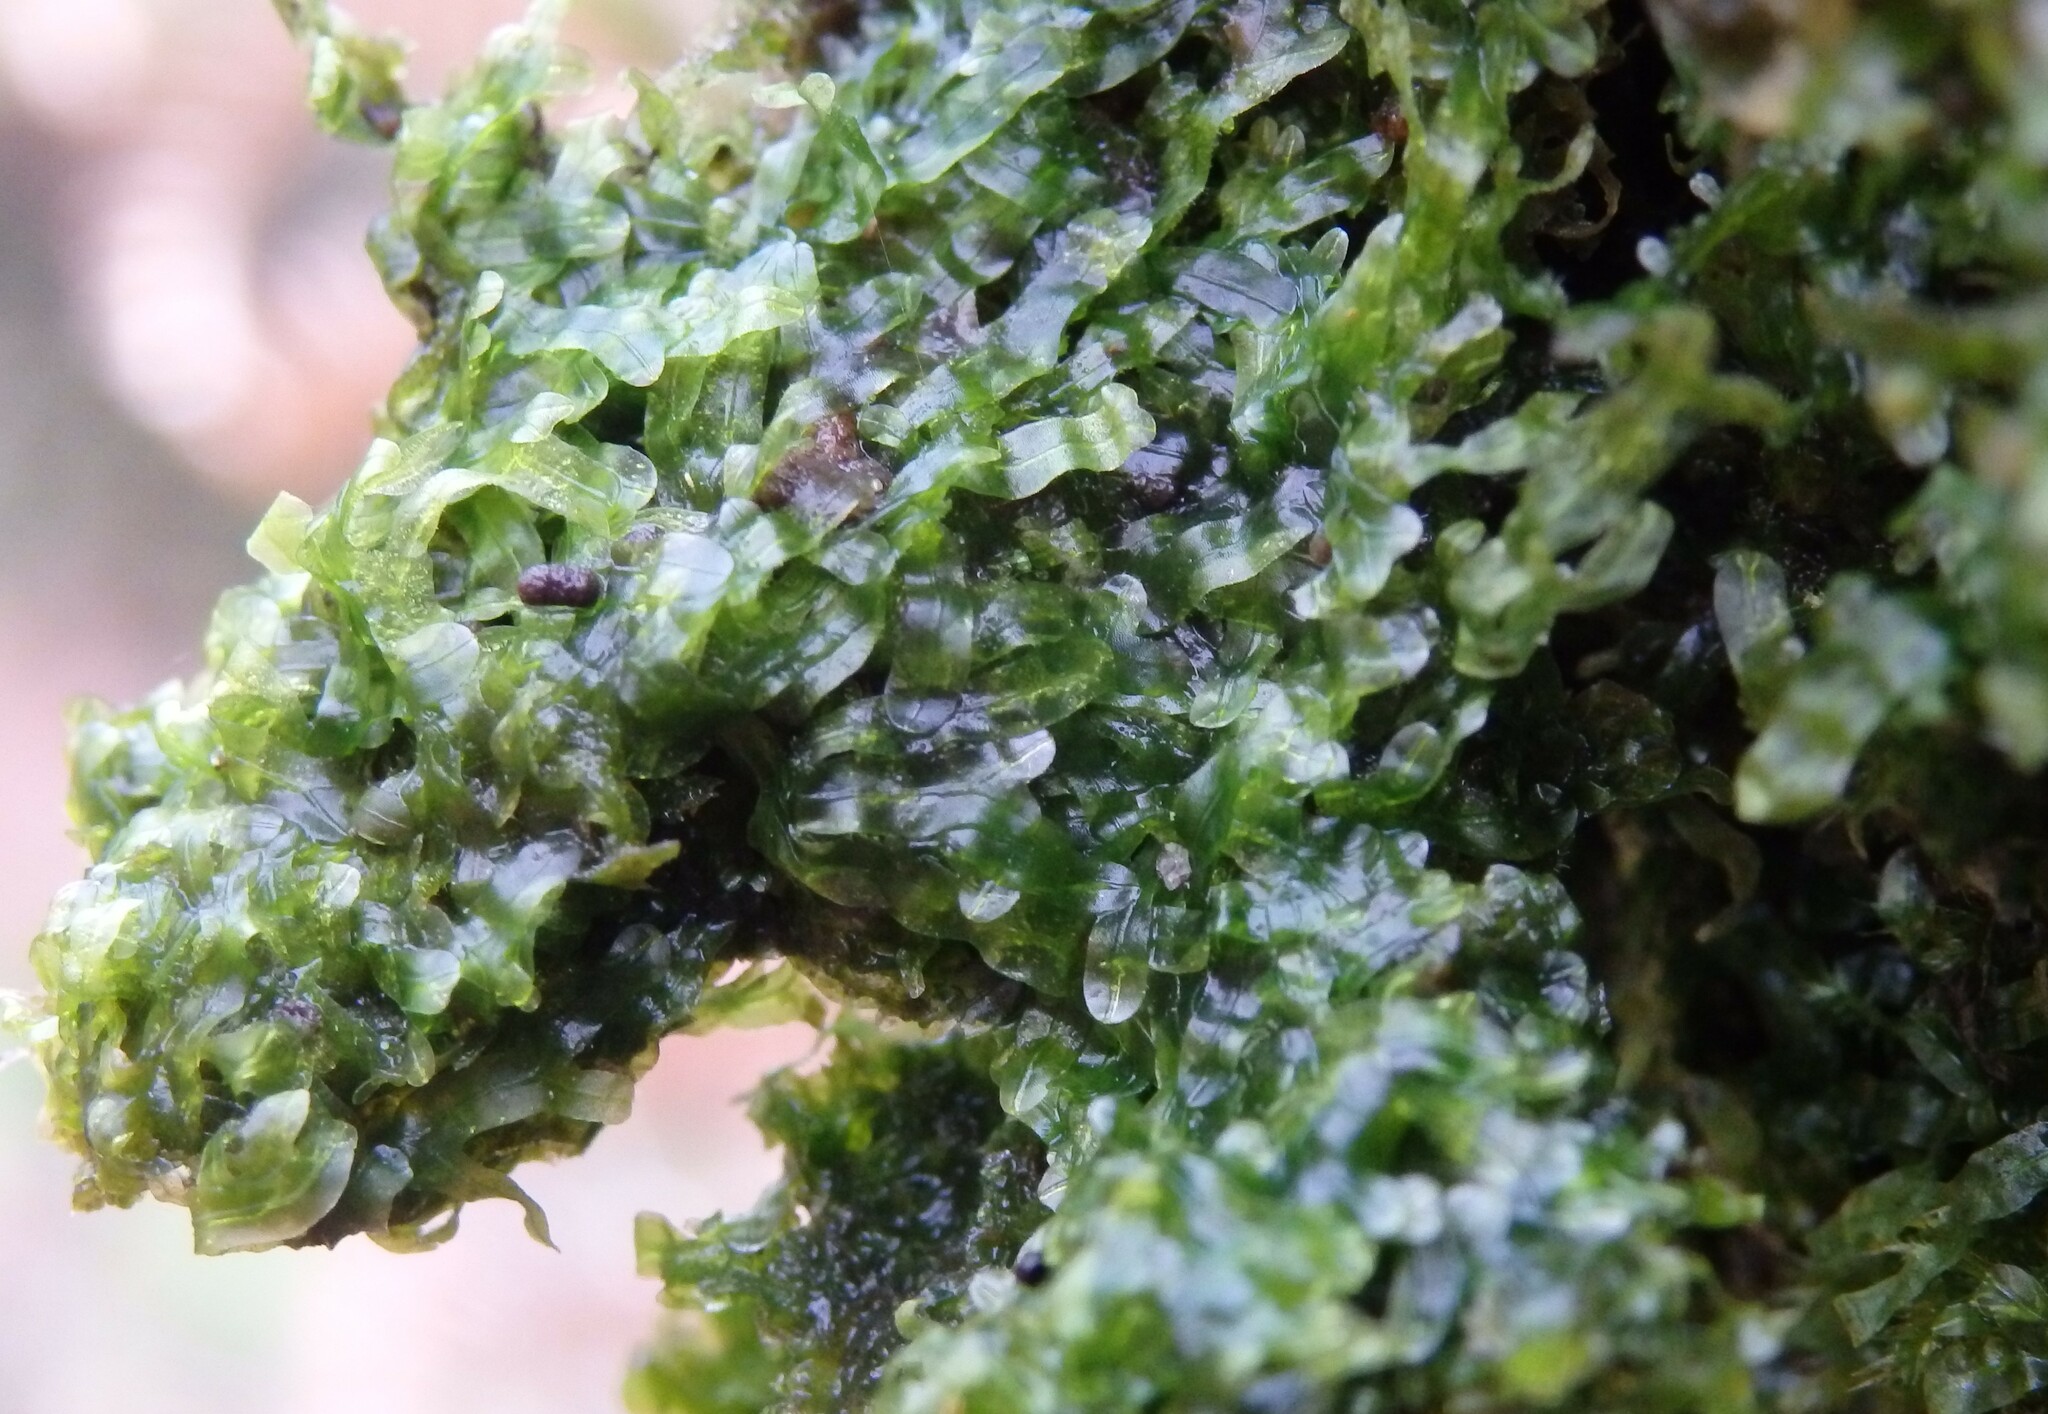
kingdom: Plantae
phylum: Marchantiophyta
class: Jungermanniopsida
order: Metzgeriales
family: Metzgeriaceae
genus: Metzgeria
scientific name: Metzgeria furcata
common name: Forked veilwort
